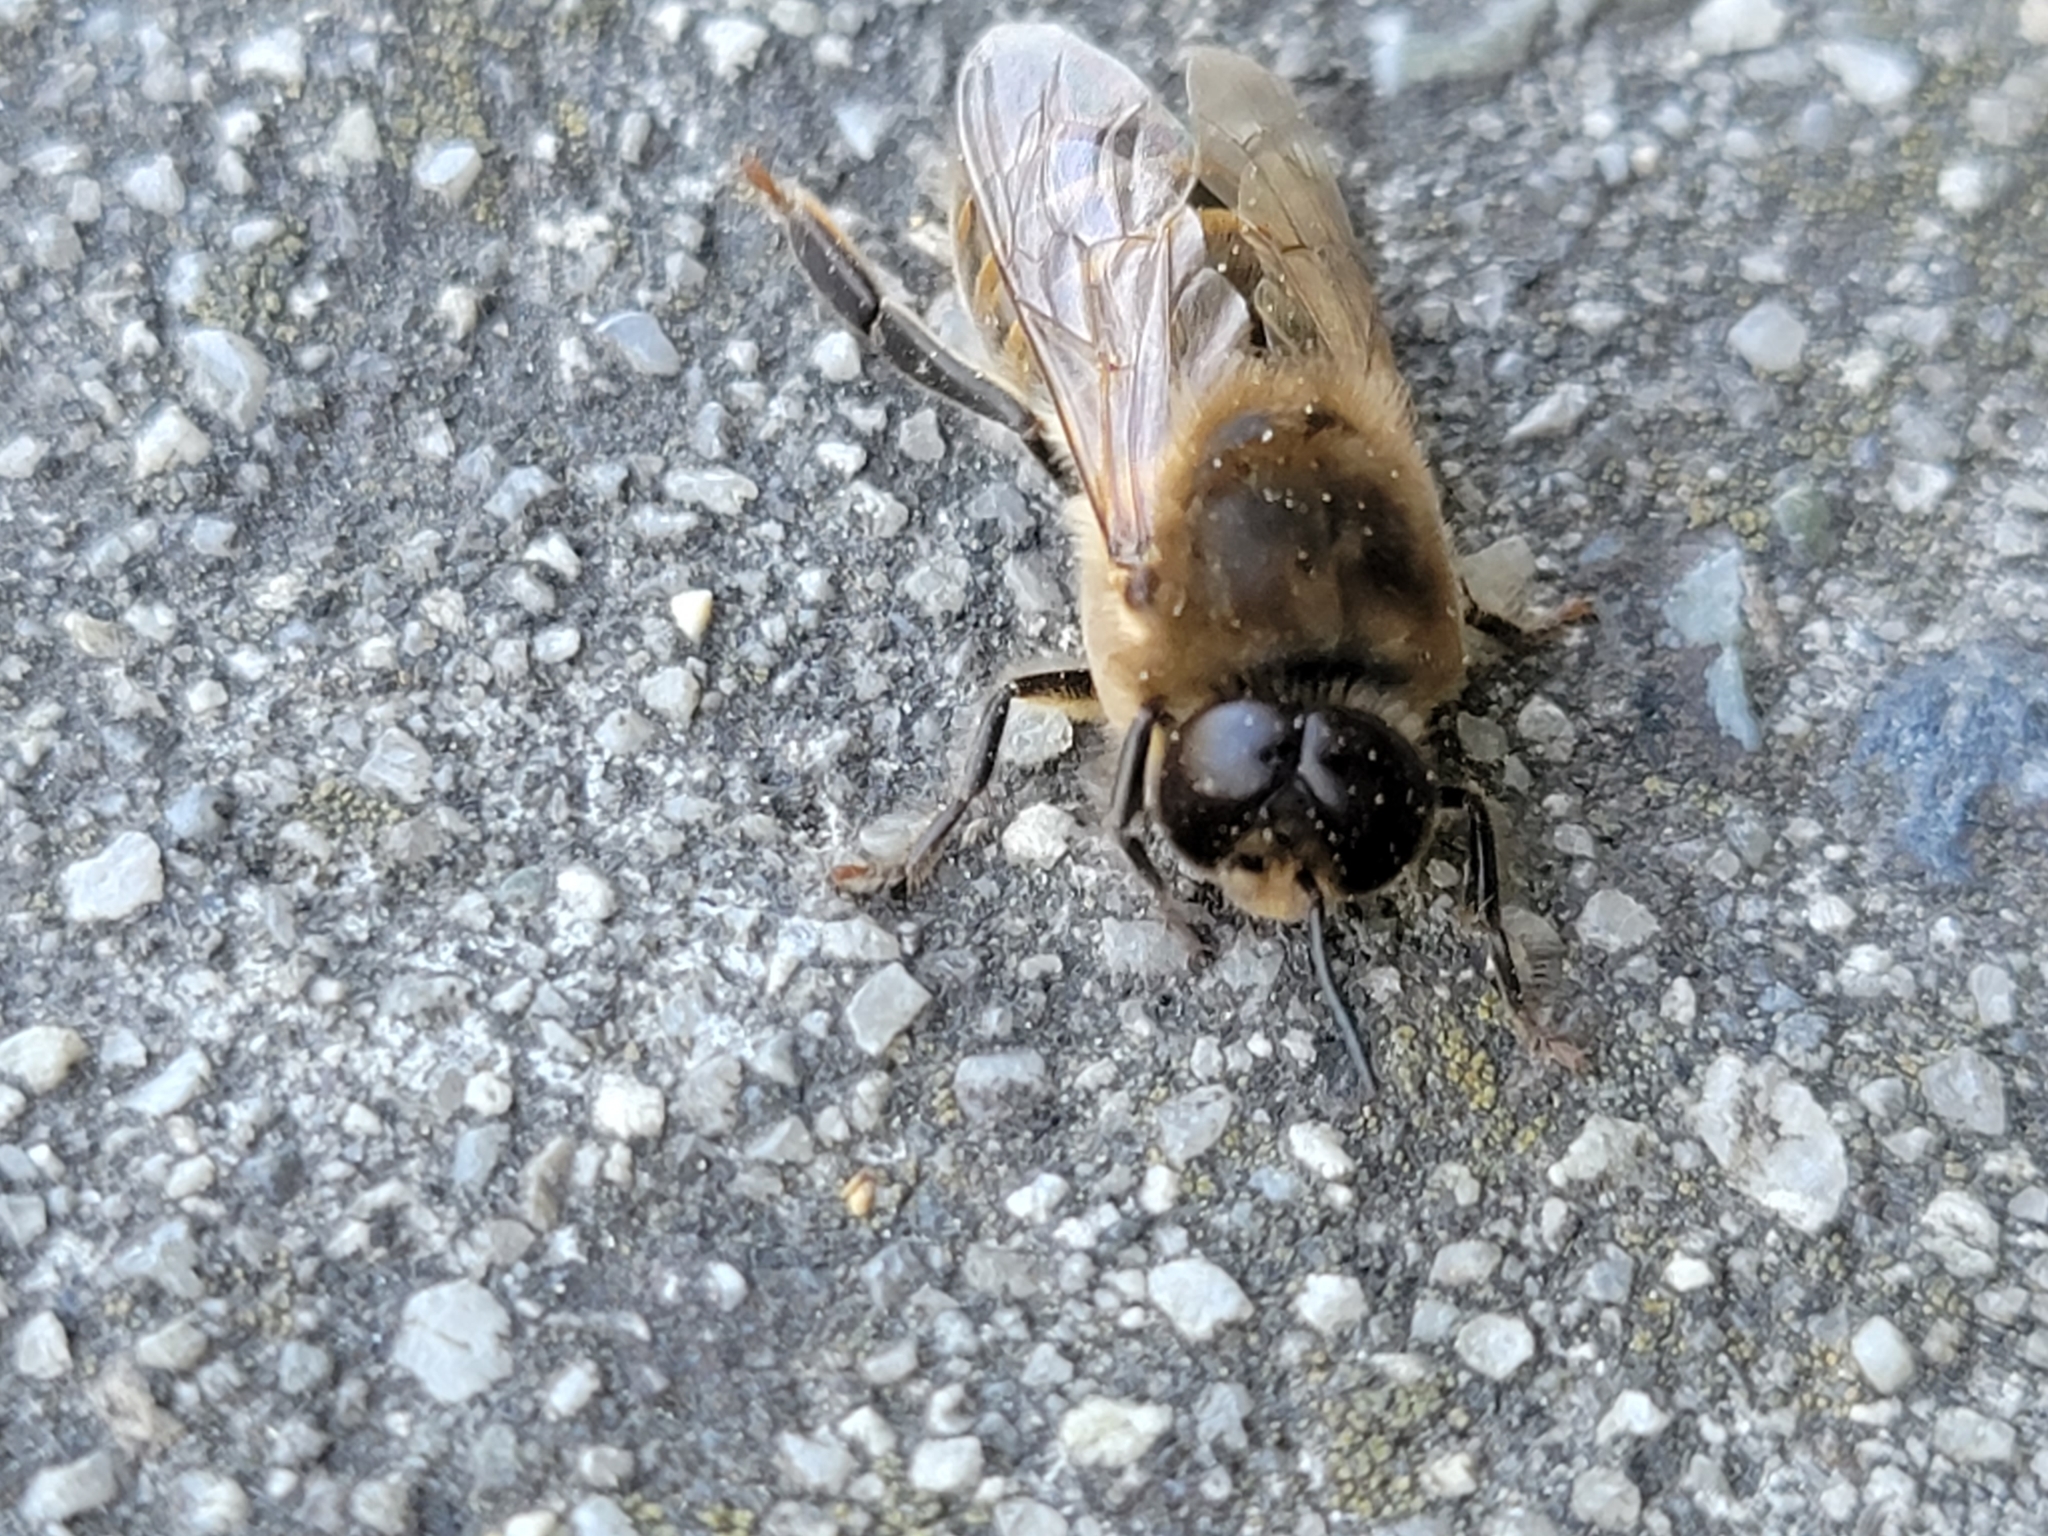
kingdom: Animalia
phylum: Arthropoda
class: Insecta
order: Hymenoptera
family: Apidae
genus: Apis
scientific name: Apis mellifera
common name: Honey bee
